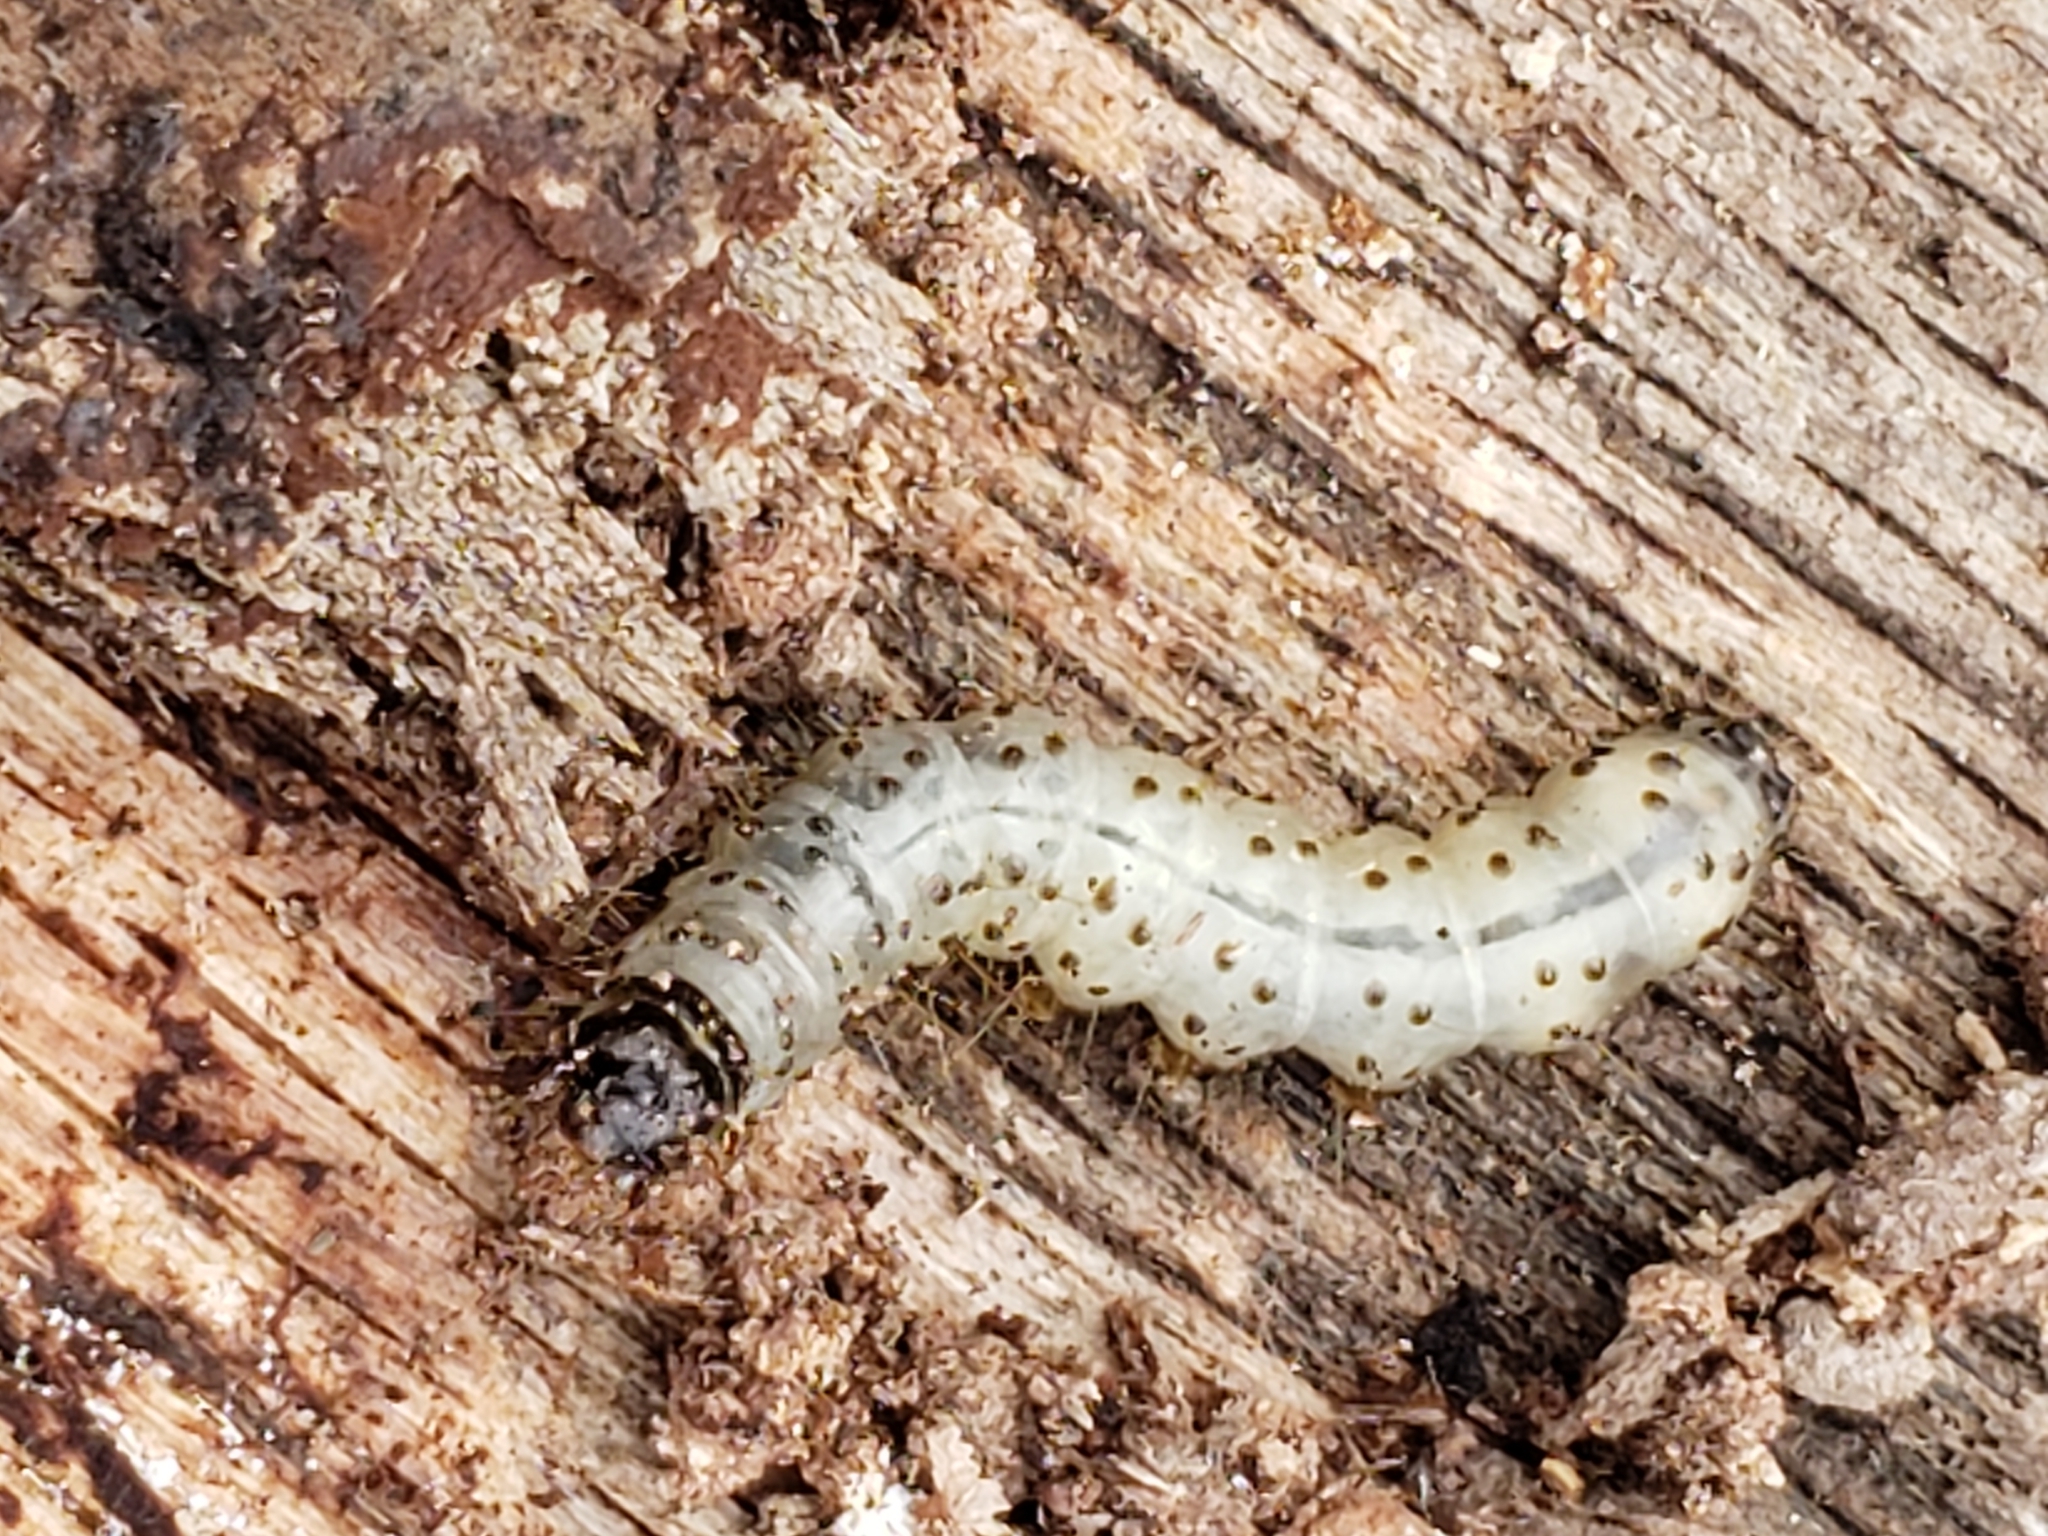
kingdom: Animalia
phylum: Arthropoda
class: Insecta
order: Lepidoptera
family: Erebidae
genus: Scolecocampa
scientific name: Scolecocampa liburna
